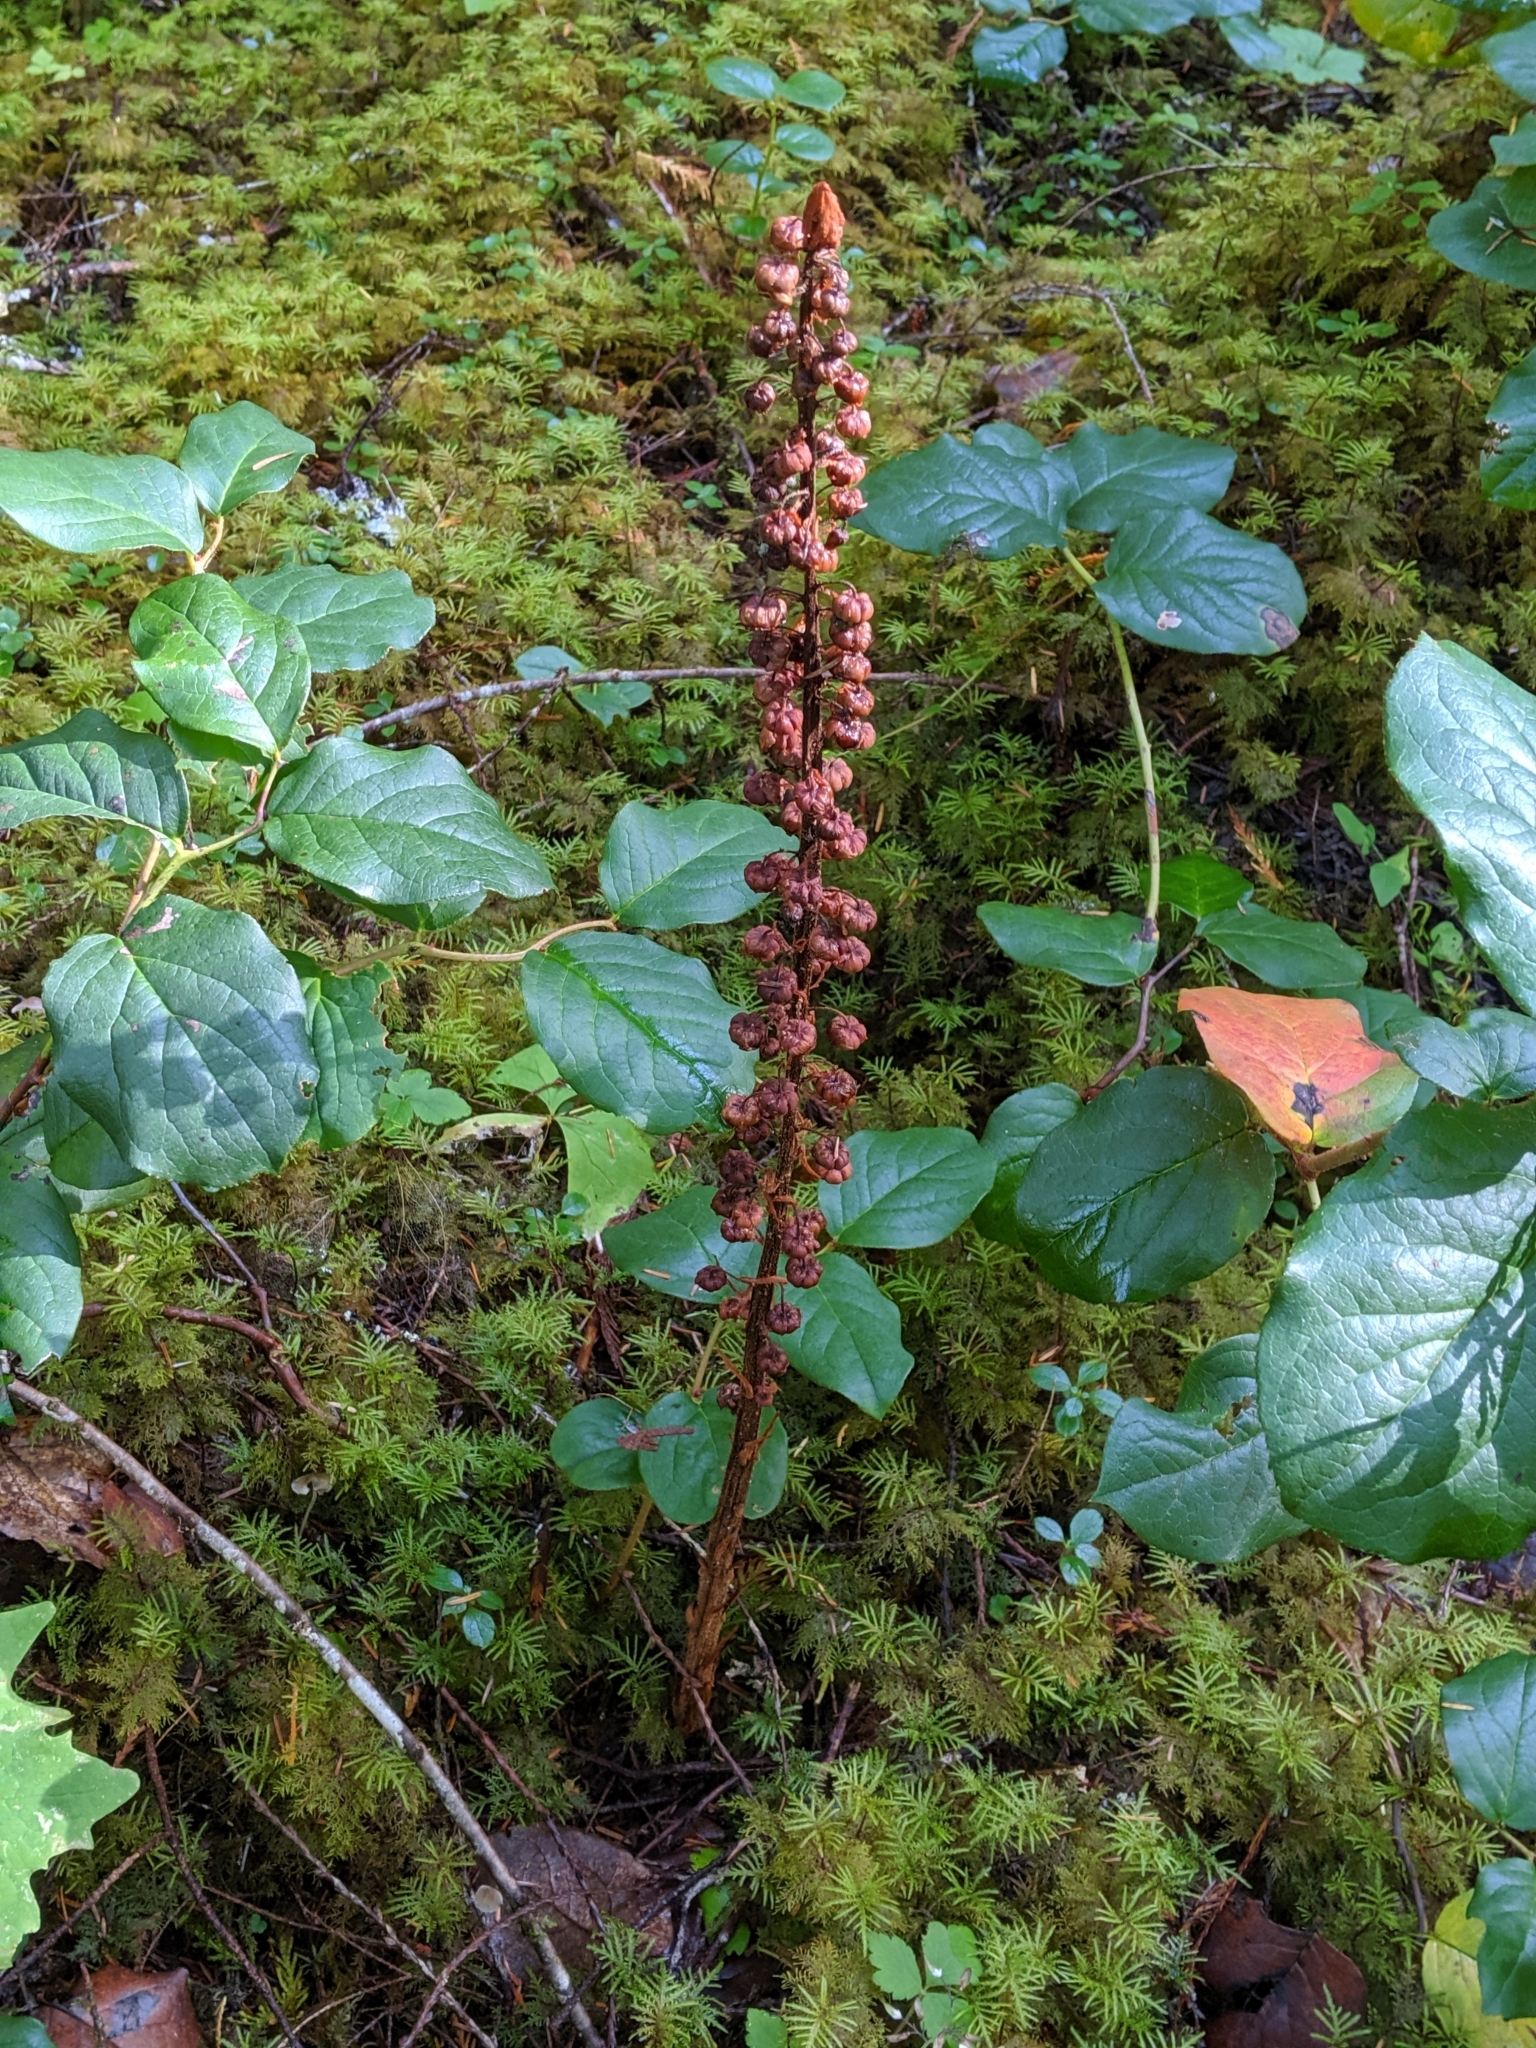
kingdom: Plantae
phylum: Tracheophyta
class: Magnoliopsida
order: Ericales
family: Ericaceae
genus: Pterospora
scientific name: Pterospora andromedea
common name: Giant bird's-nest
